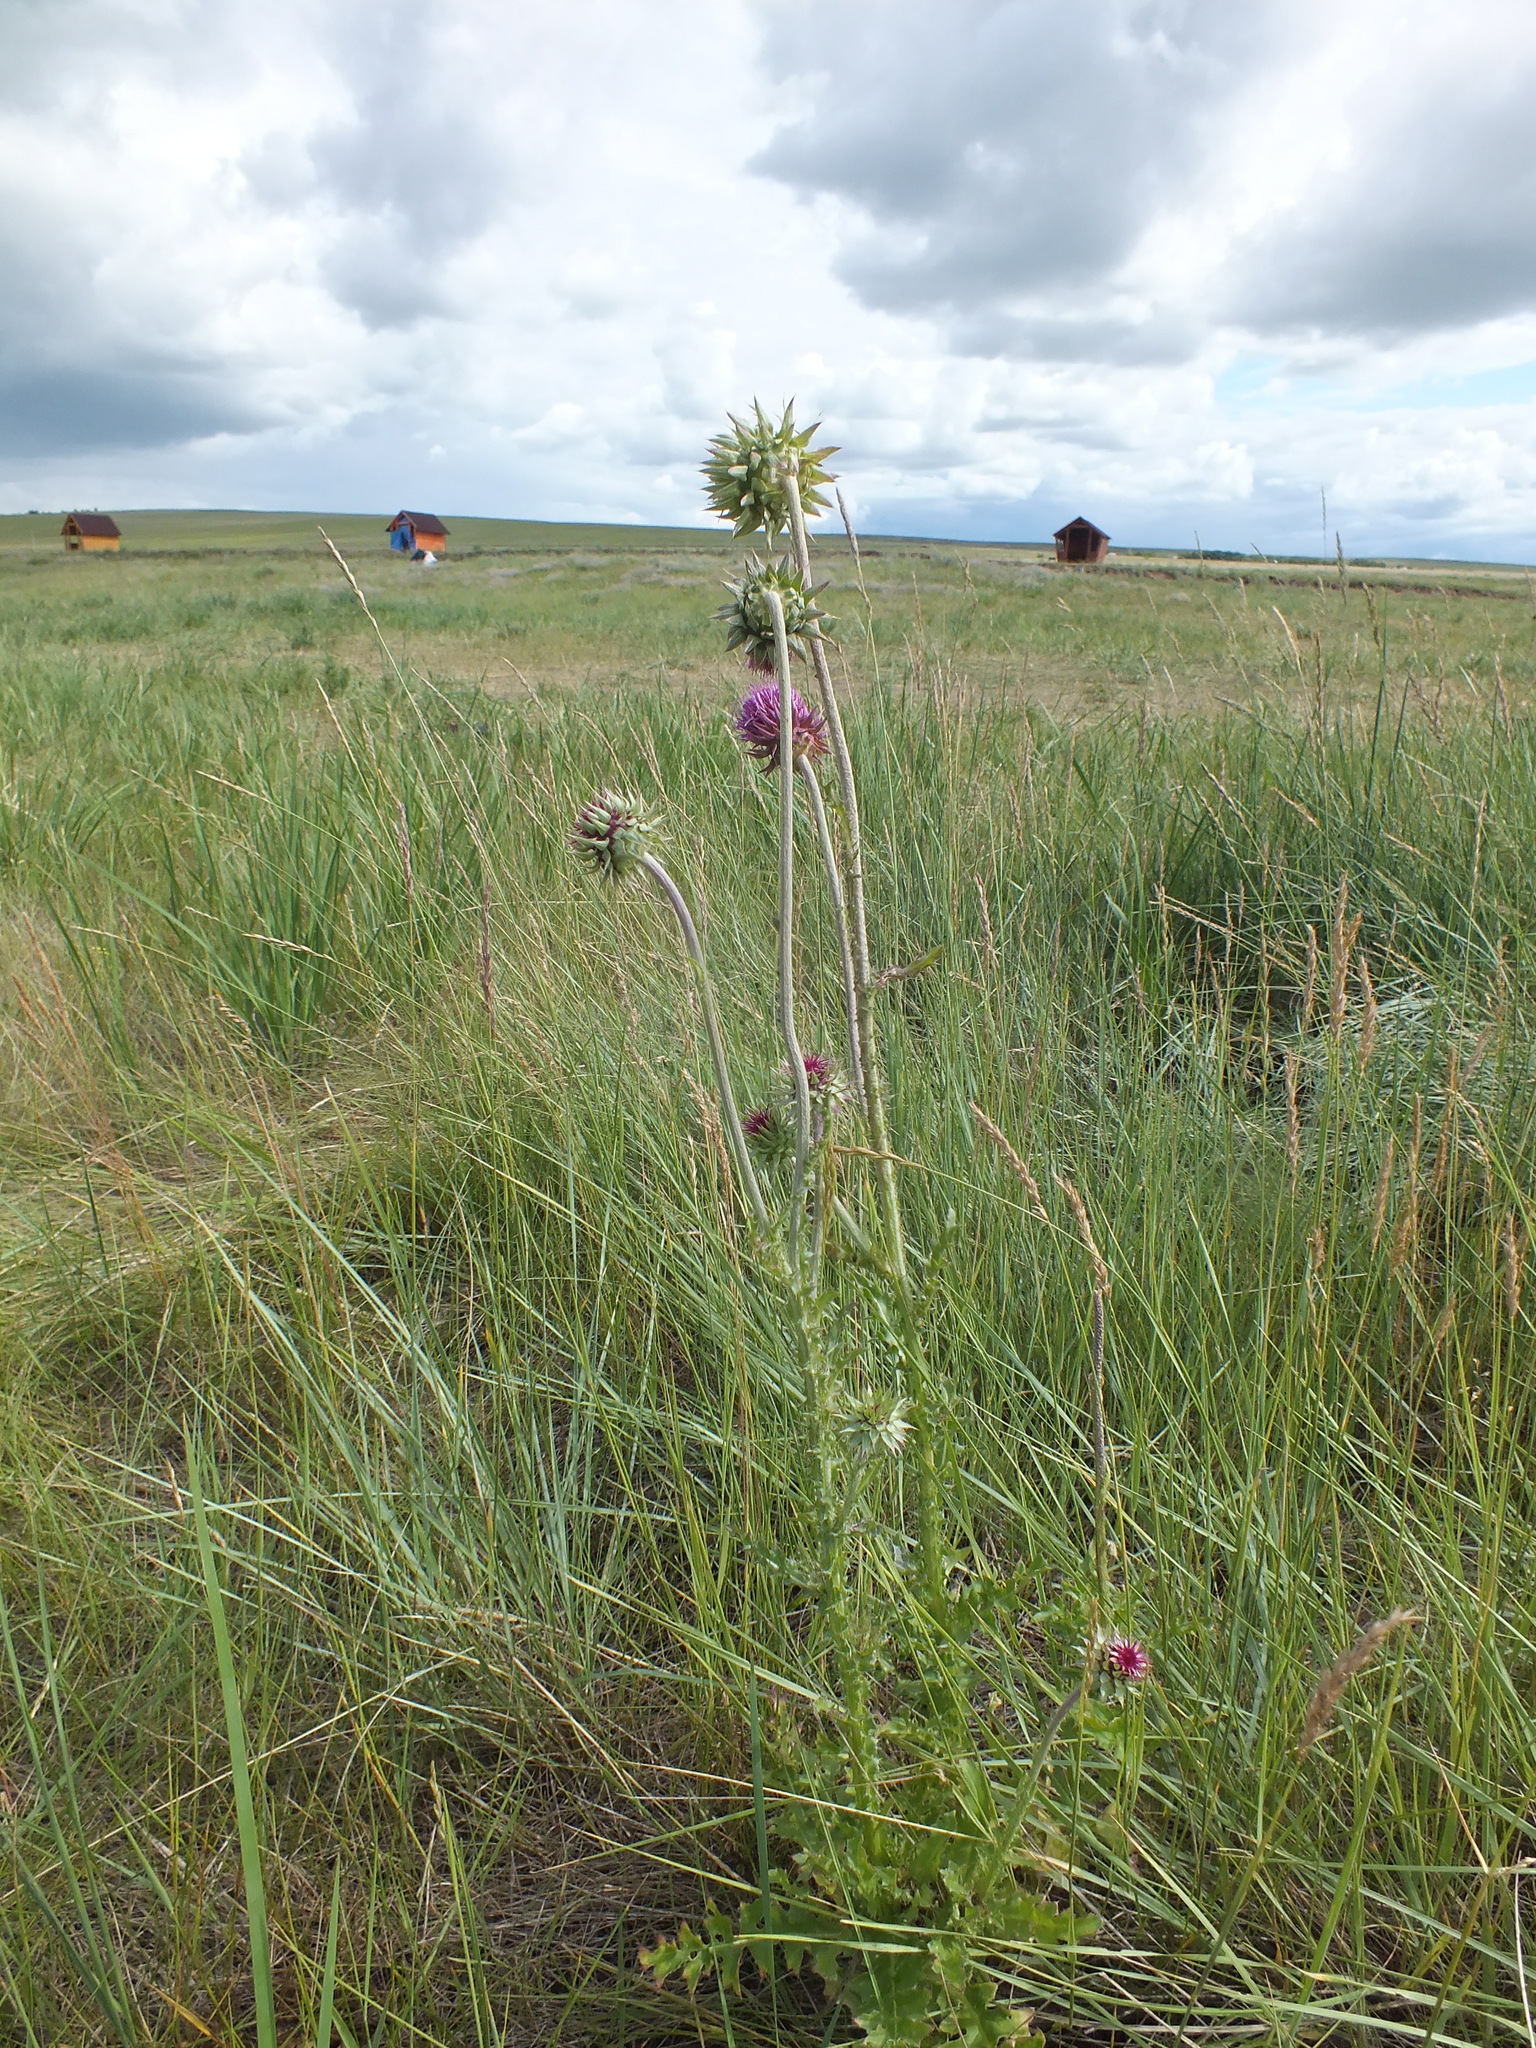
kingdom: Plantae
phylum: Tracheophyta
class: Magnoliopsida
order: Asterales
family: Asteraceae
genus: Carduus
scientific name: Carduus nutans
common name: Musk thistle
